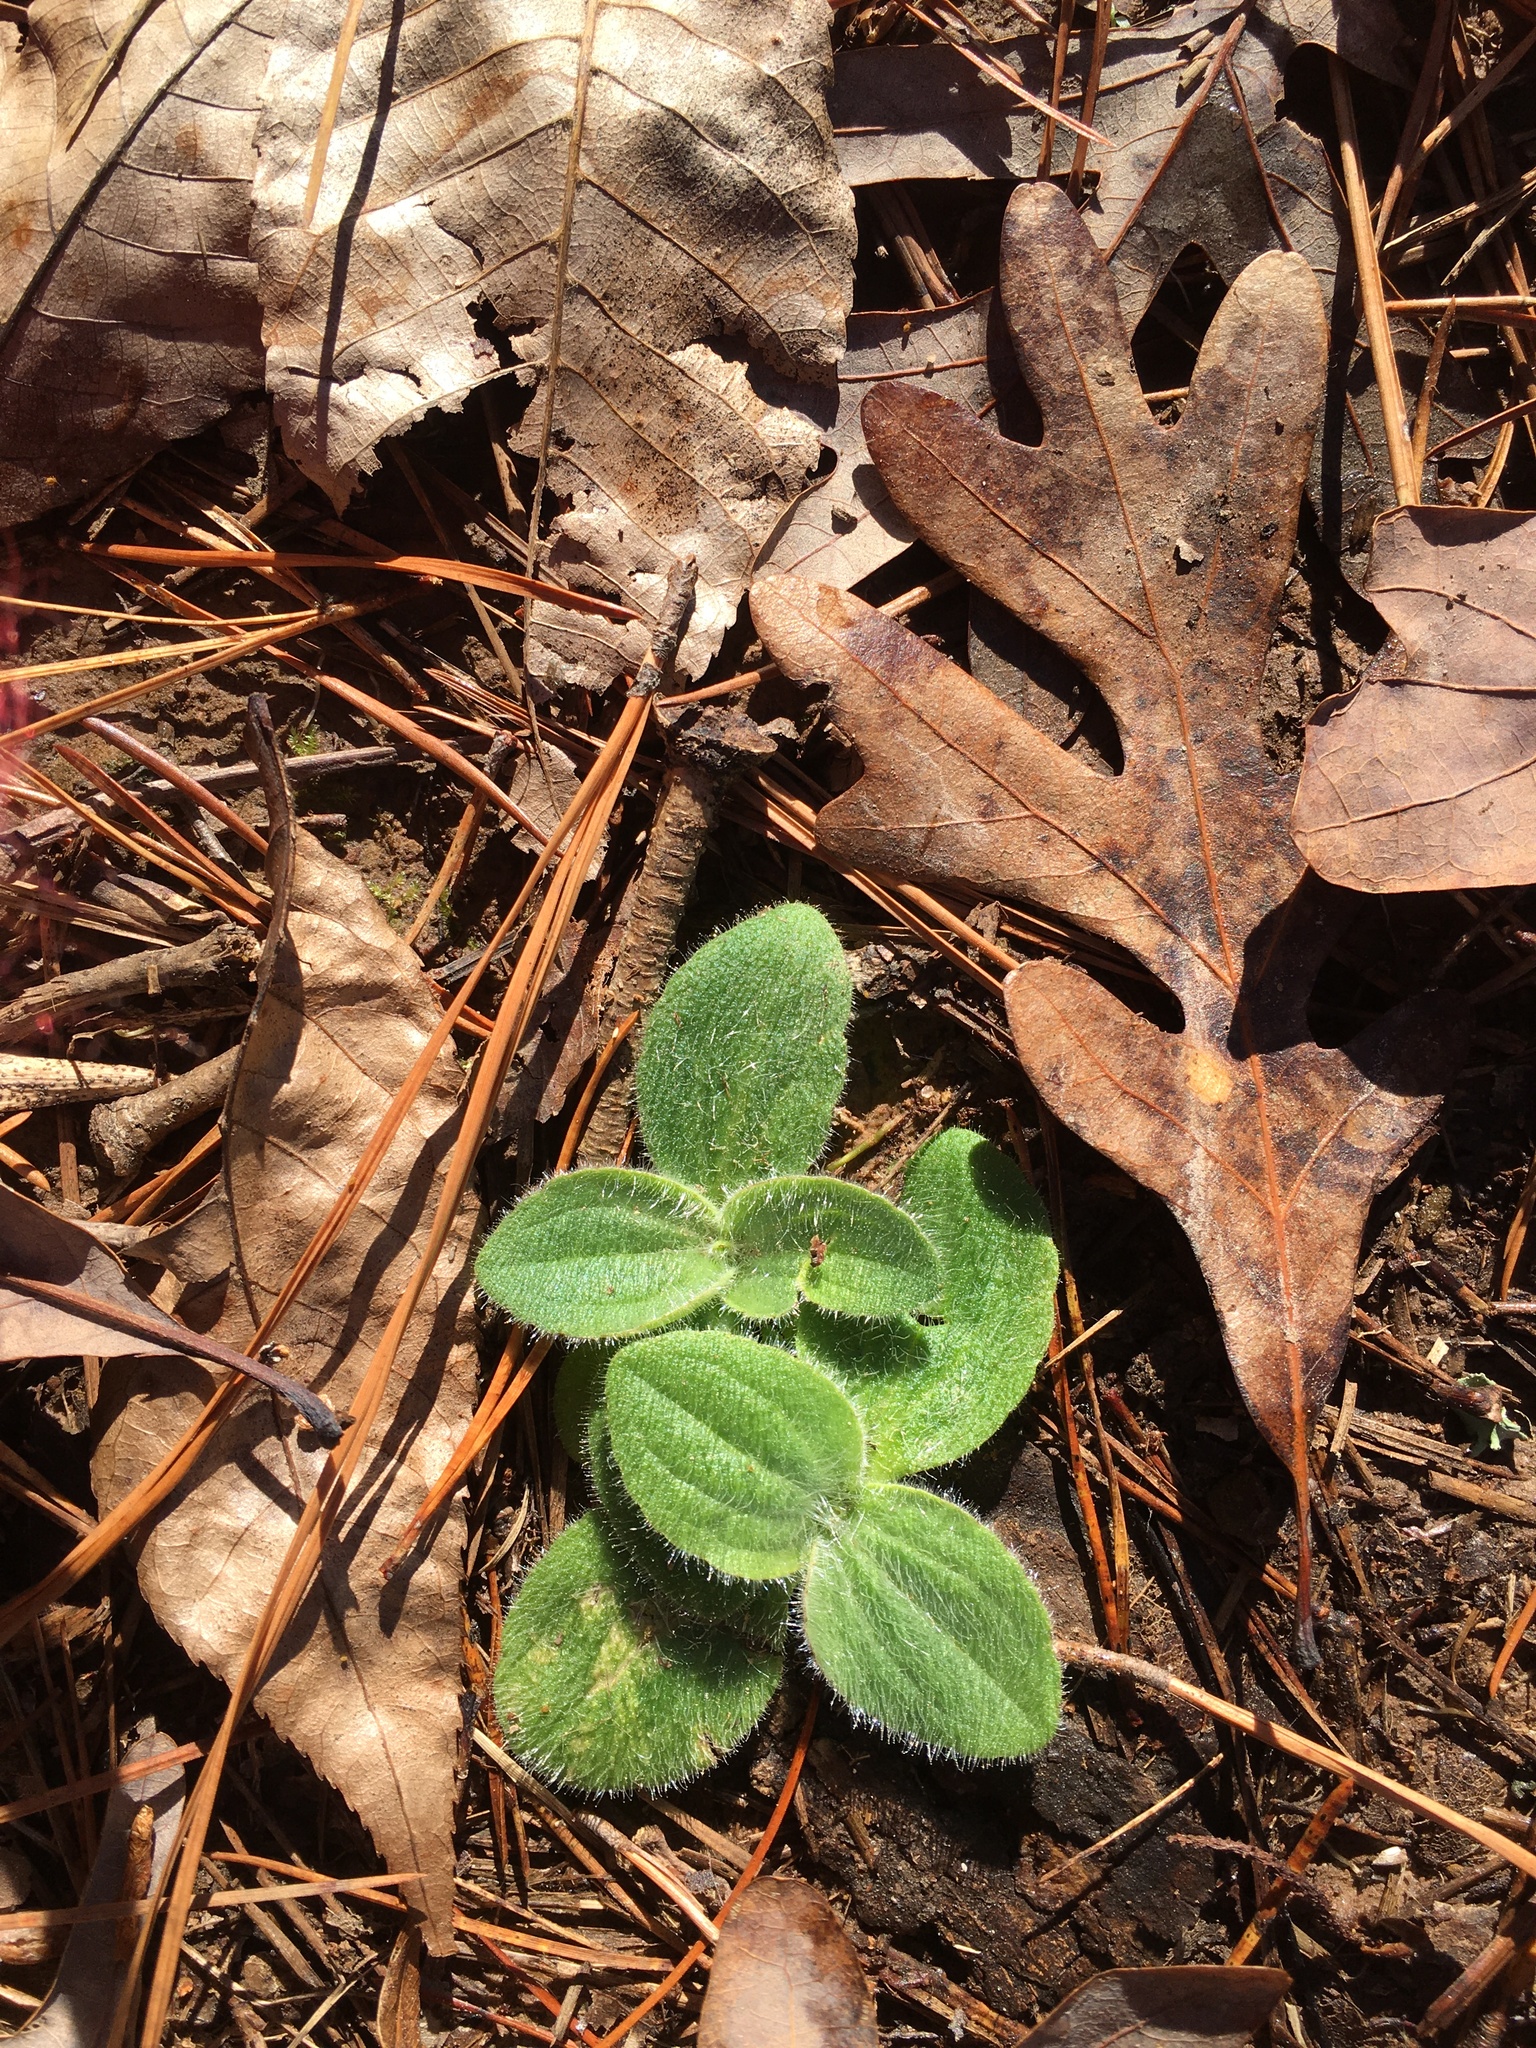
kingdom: Plantae
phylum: Tracheophyta
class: Magnoliopsida
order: Asterales
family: Asteraceae
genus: Arnica
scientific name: Arnica acaulis
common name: Common leopardbane
